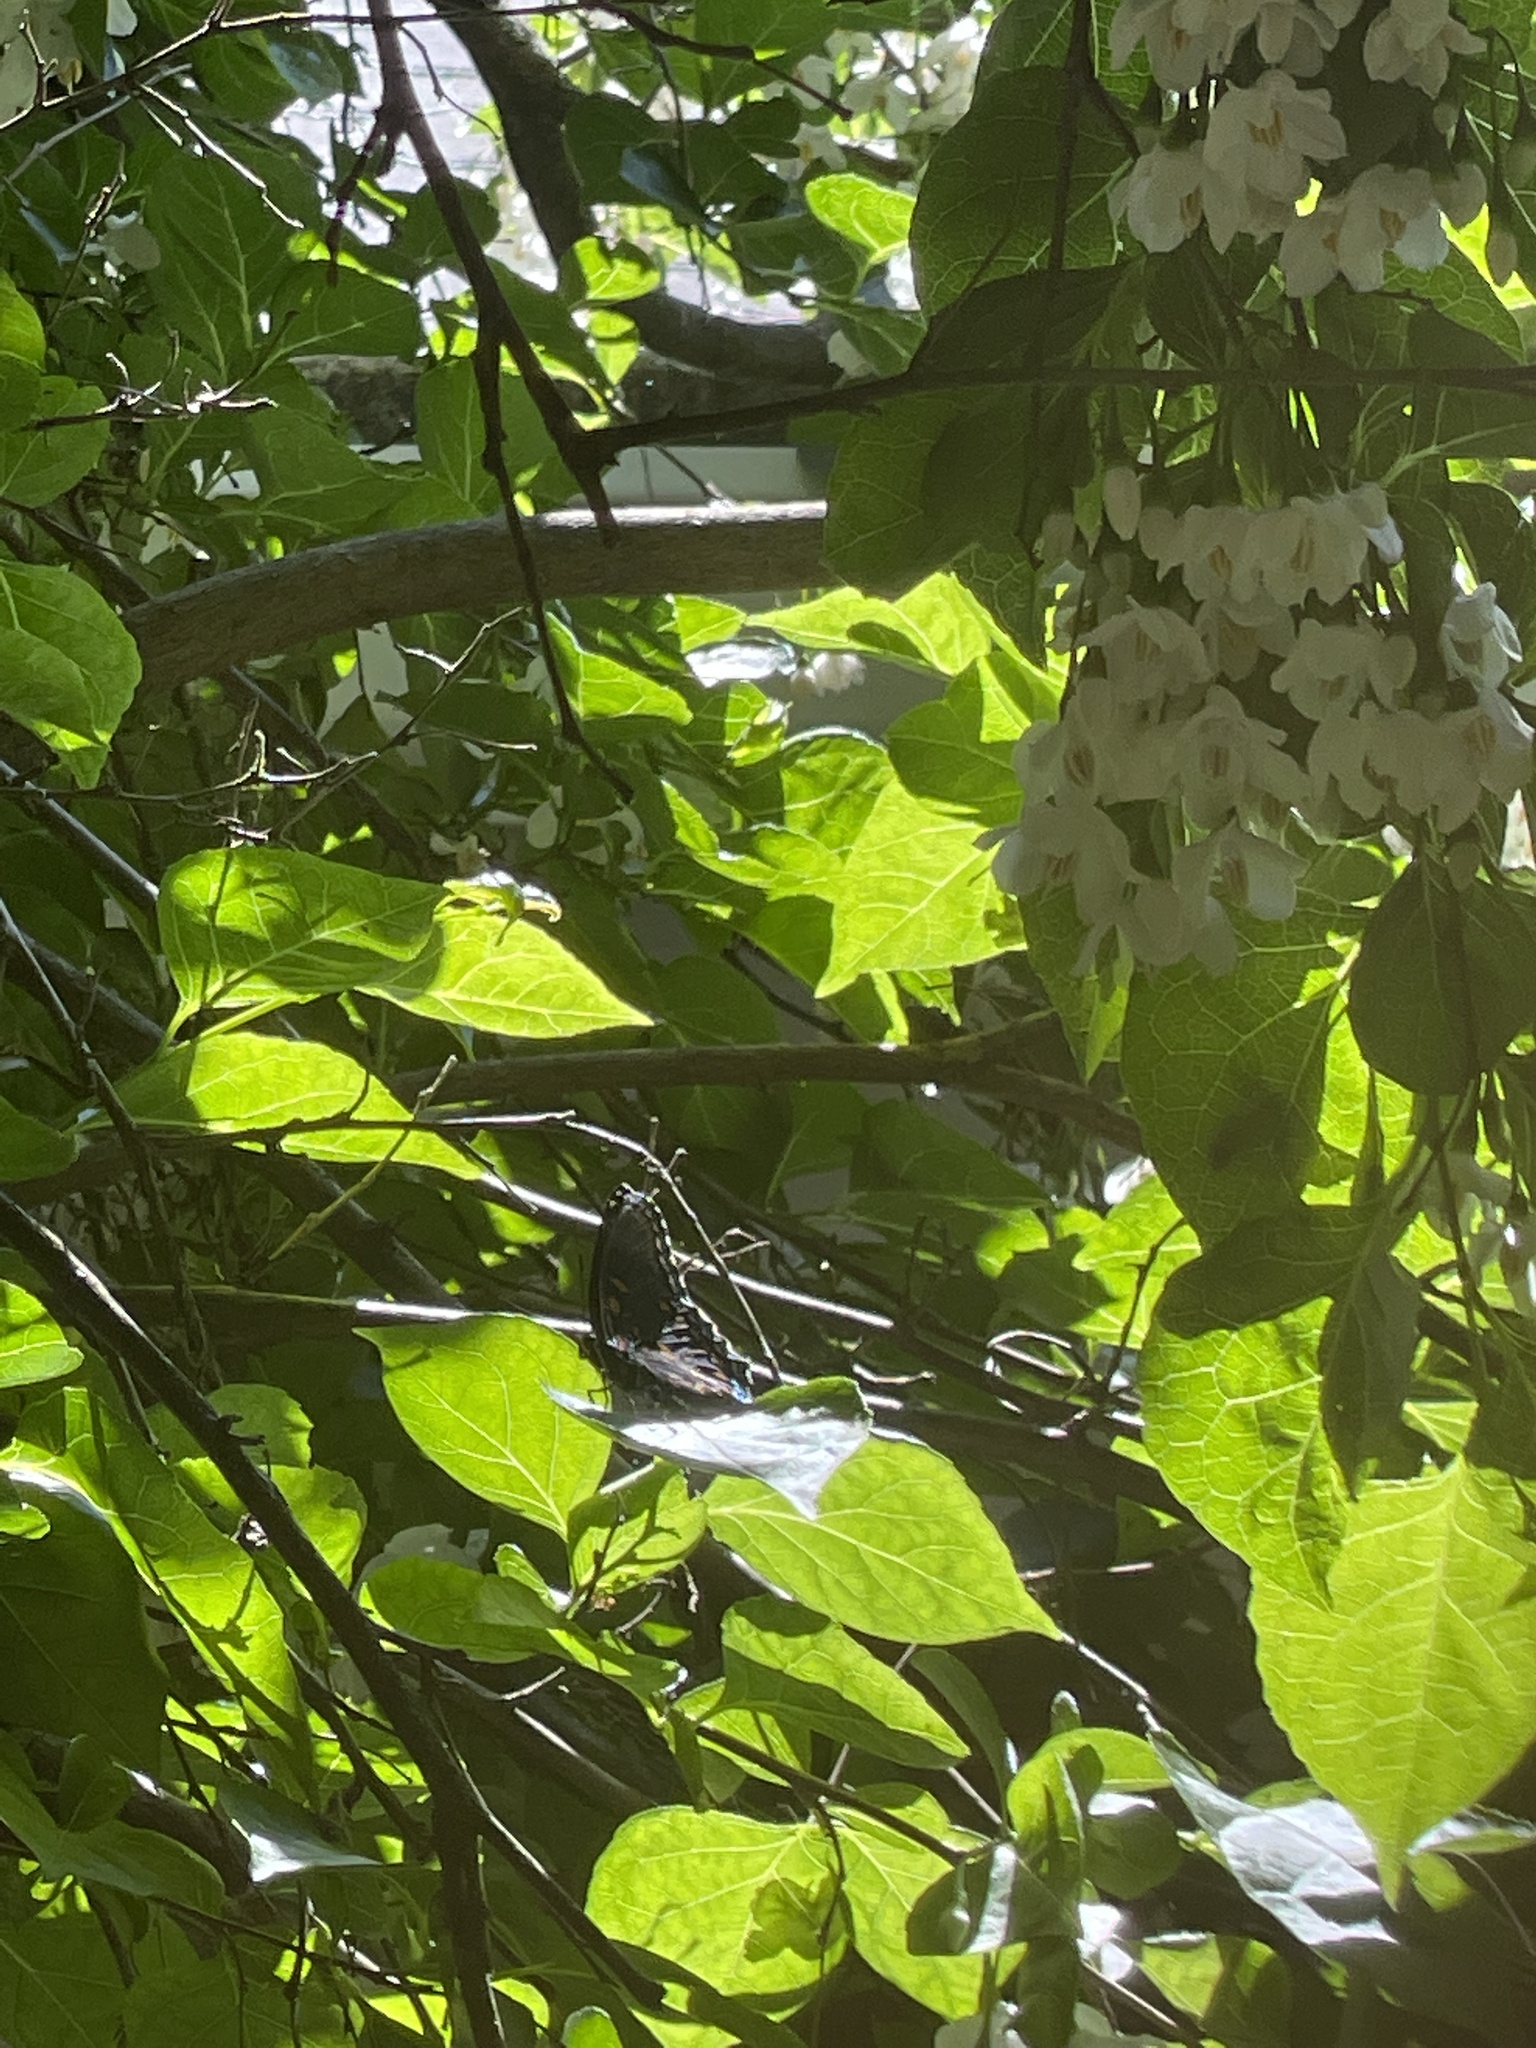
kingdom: Animalia
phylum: Arthropoda
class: Insecta
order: Lepidoptera
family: Nymphalidae
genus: Limenitis
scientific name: Limenitis astyanax
